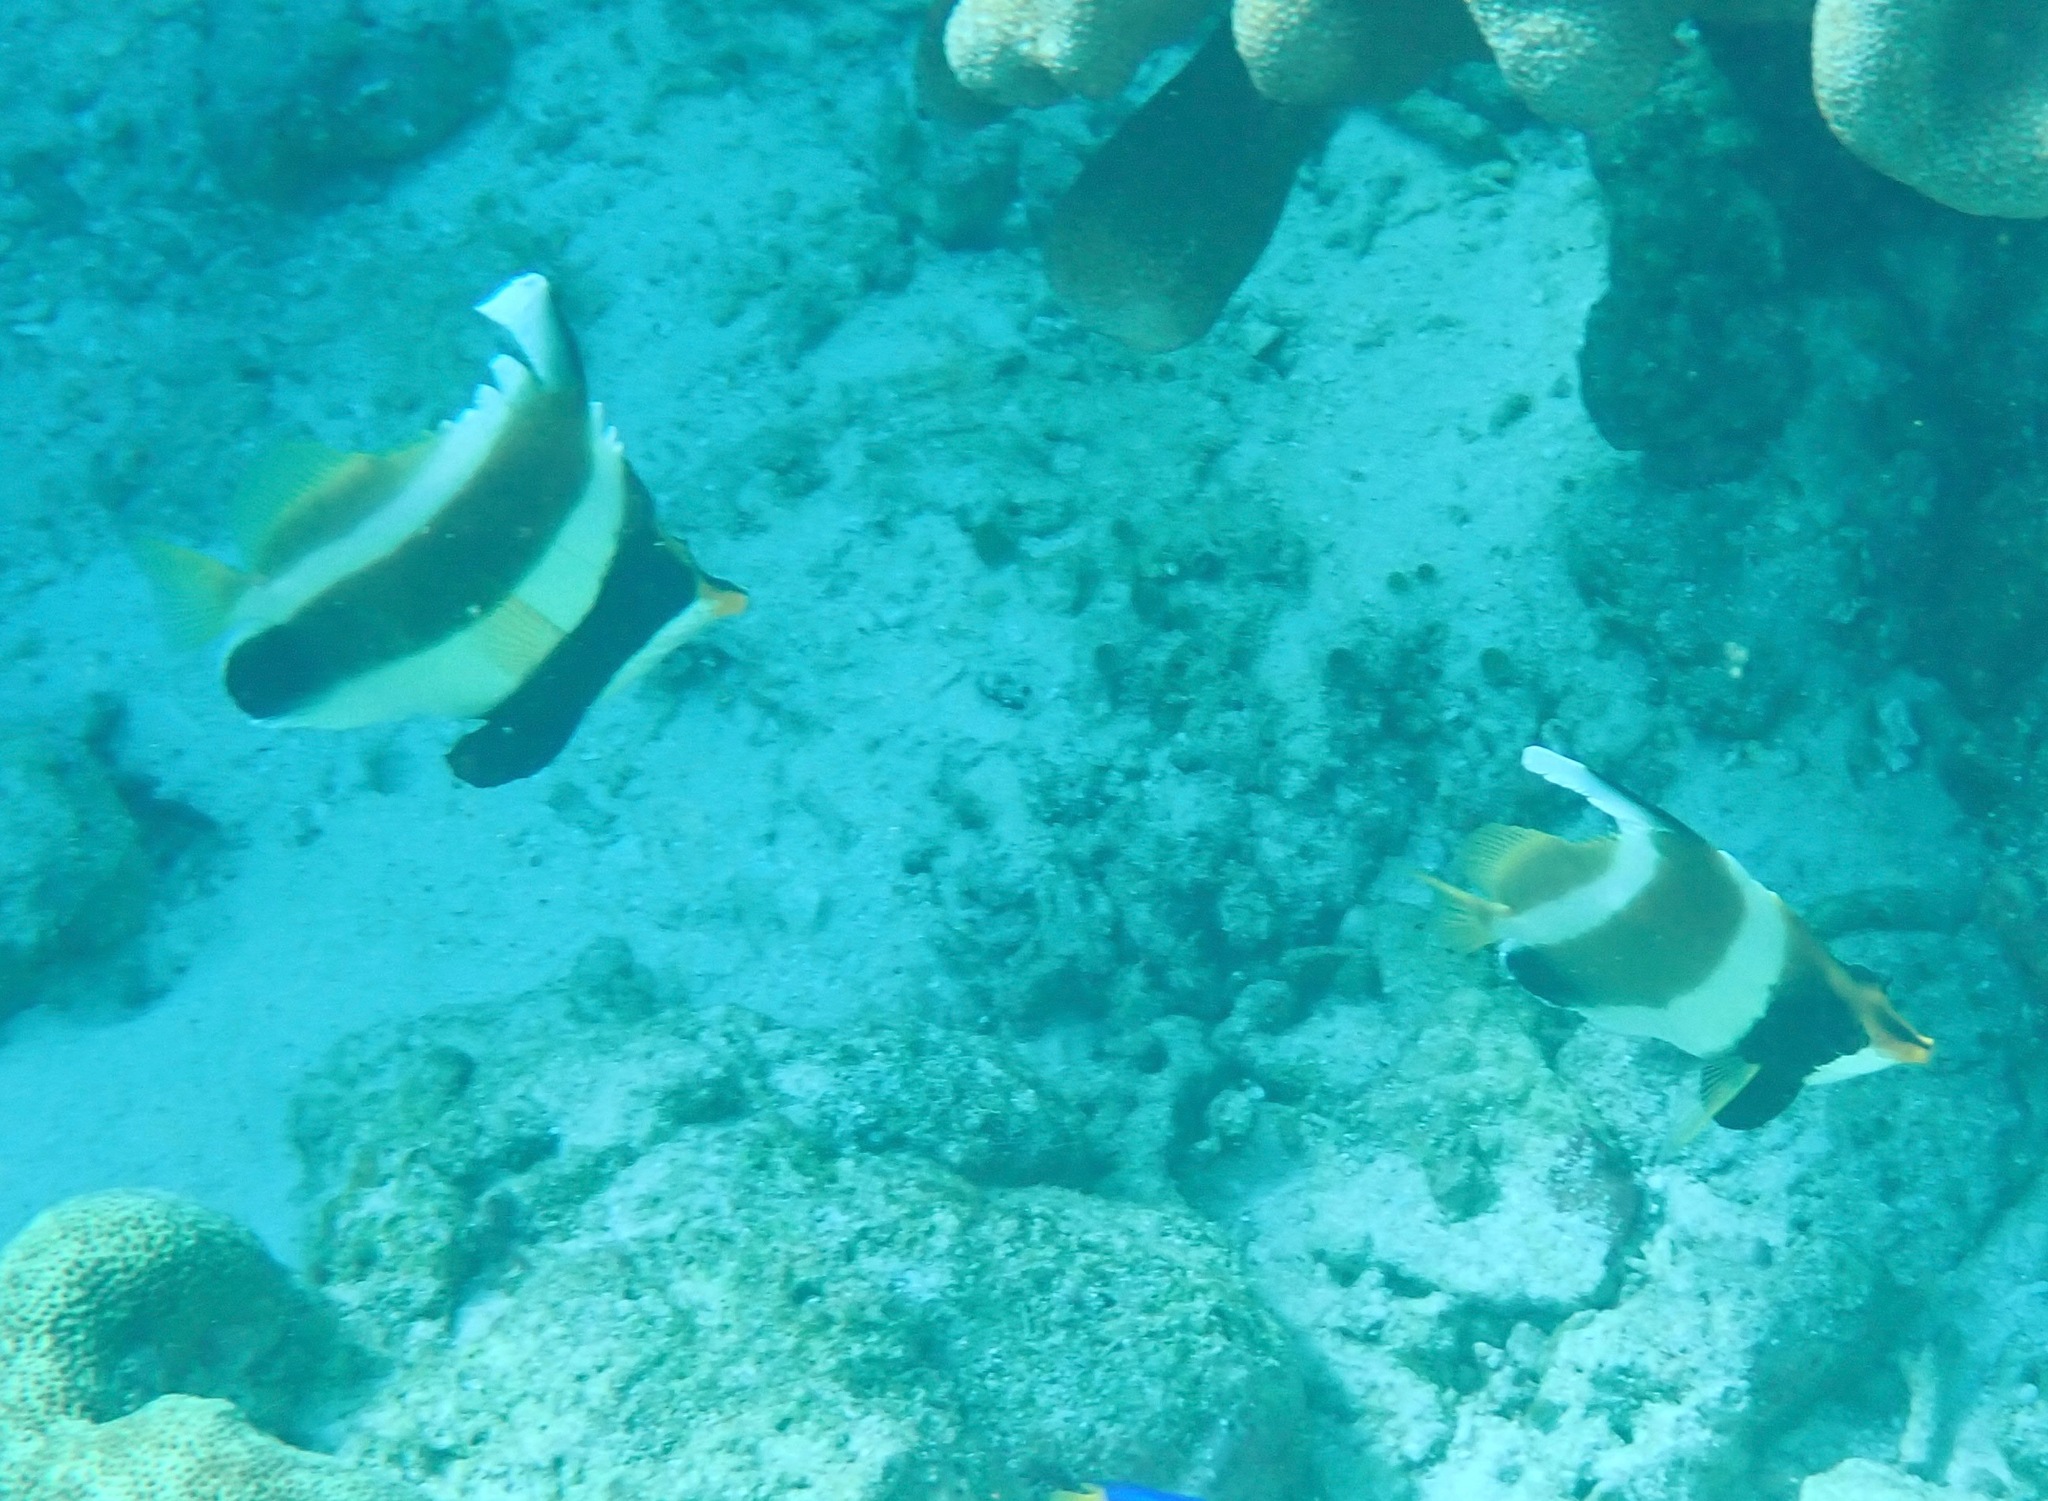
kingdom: Animalia
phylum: Chordata
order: Perciformes
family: Chaetodontidae
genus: Heniochus
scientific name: Heniochus chrysostomus
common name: Horned bannerfish
